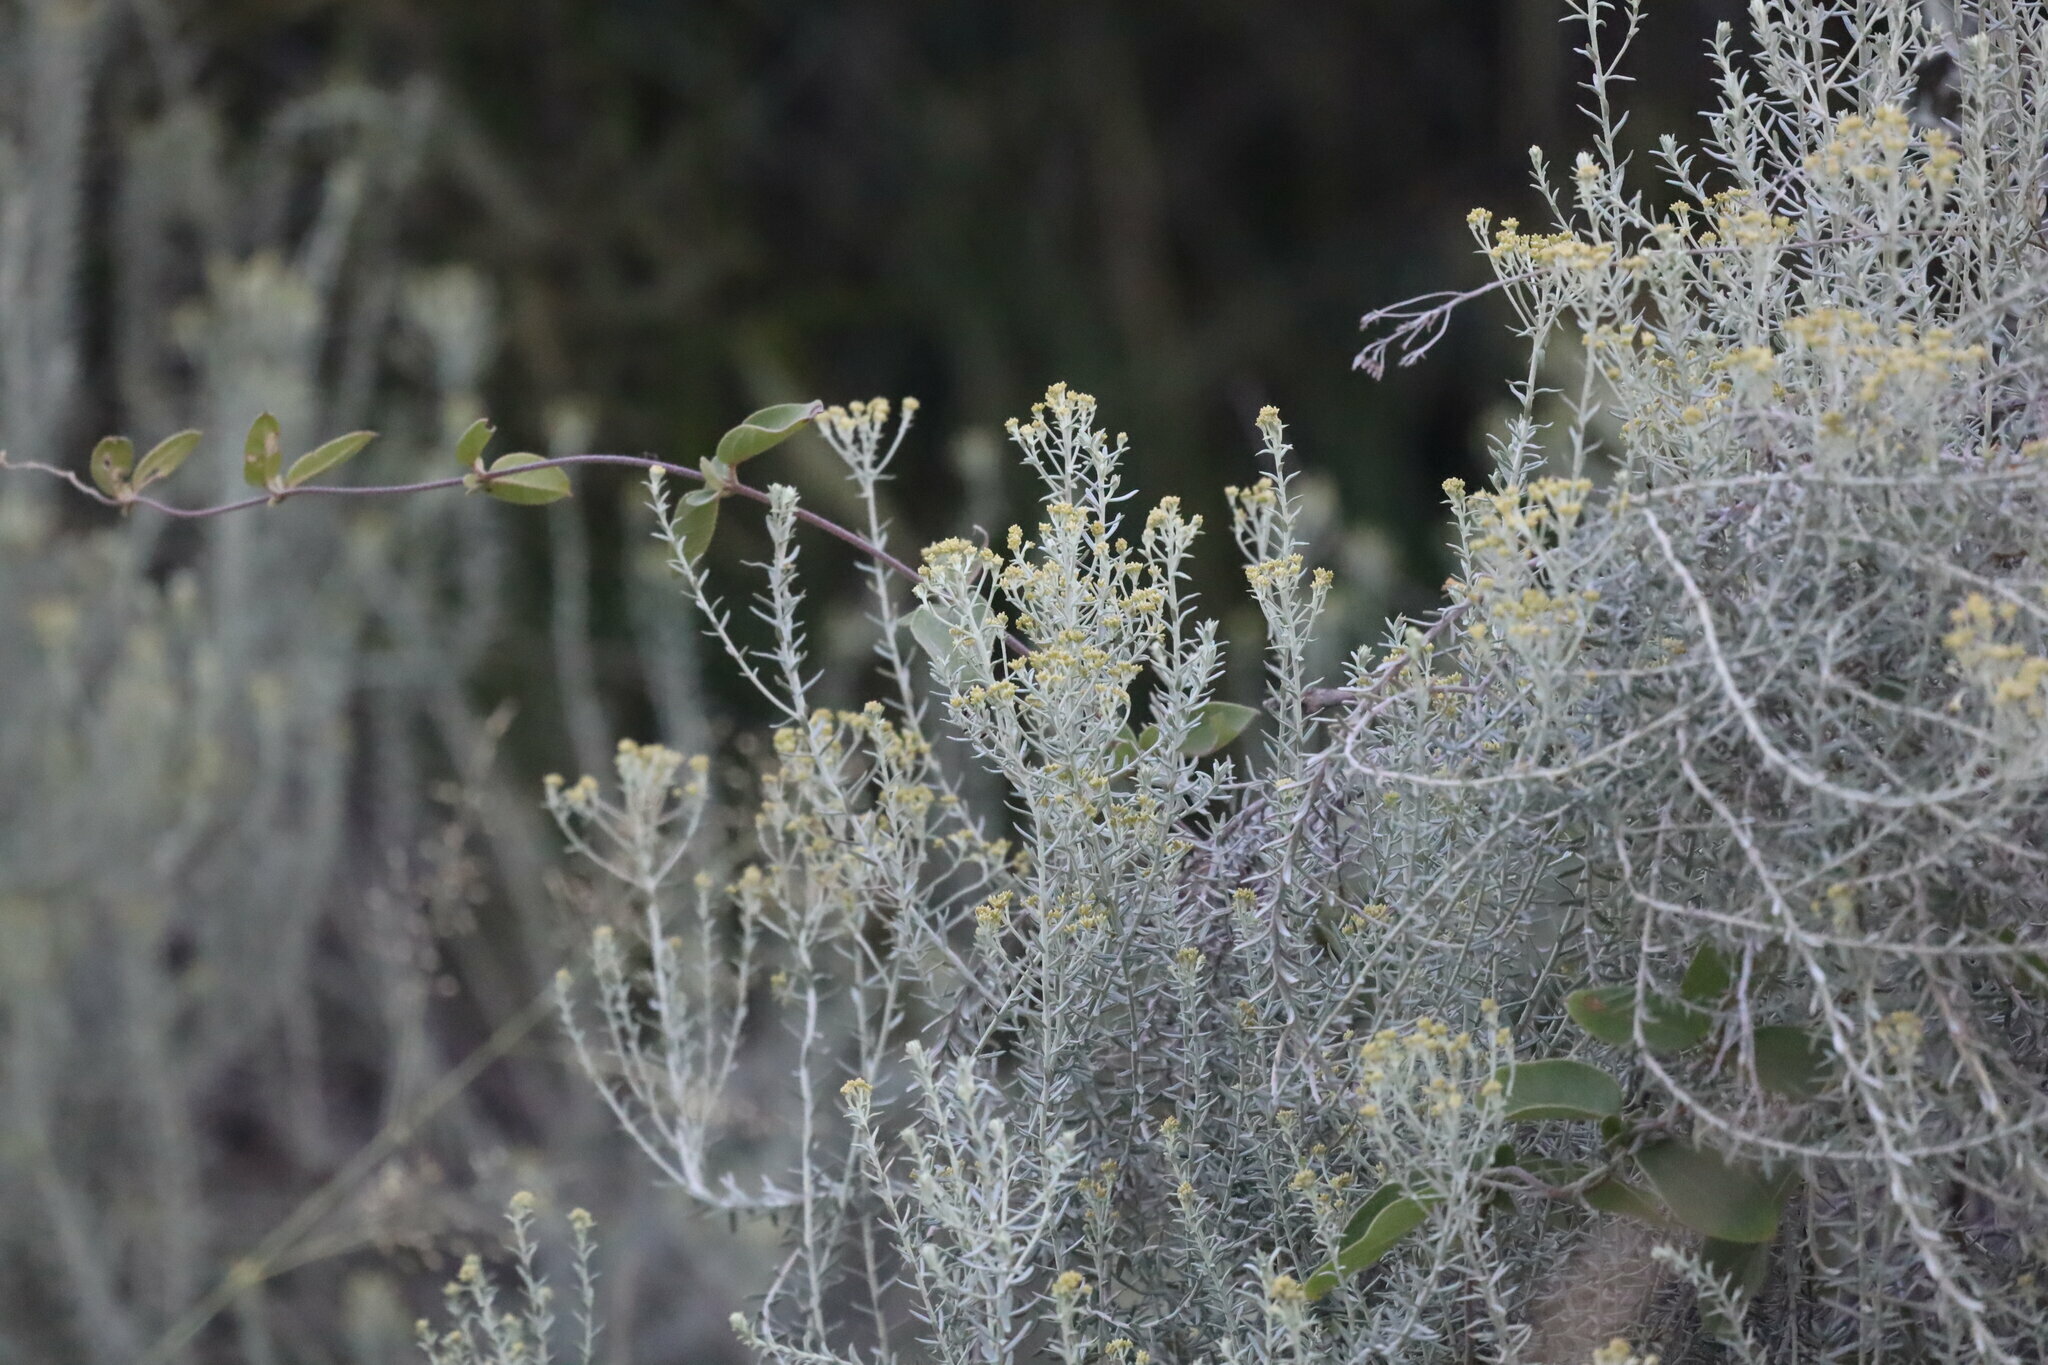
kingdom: Plantae
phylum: Tracheophyta
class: Magnoliopsida
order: Asterales
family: Asteraceae
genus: Helichrysum
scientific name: Helichrysum kraussii
